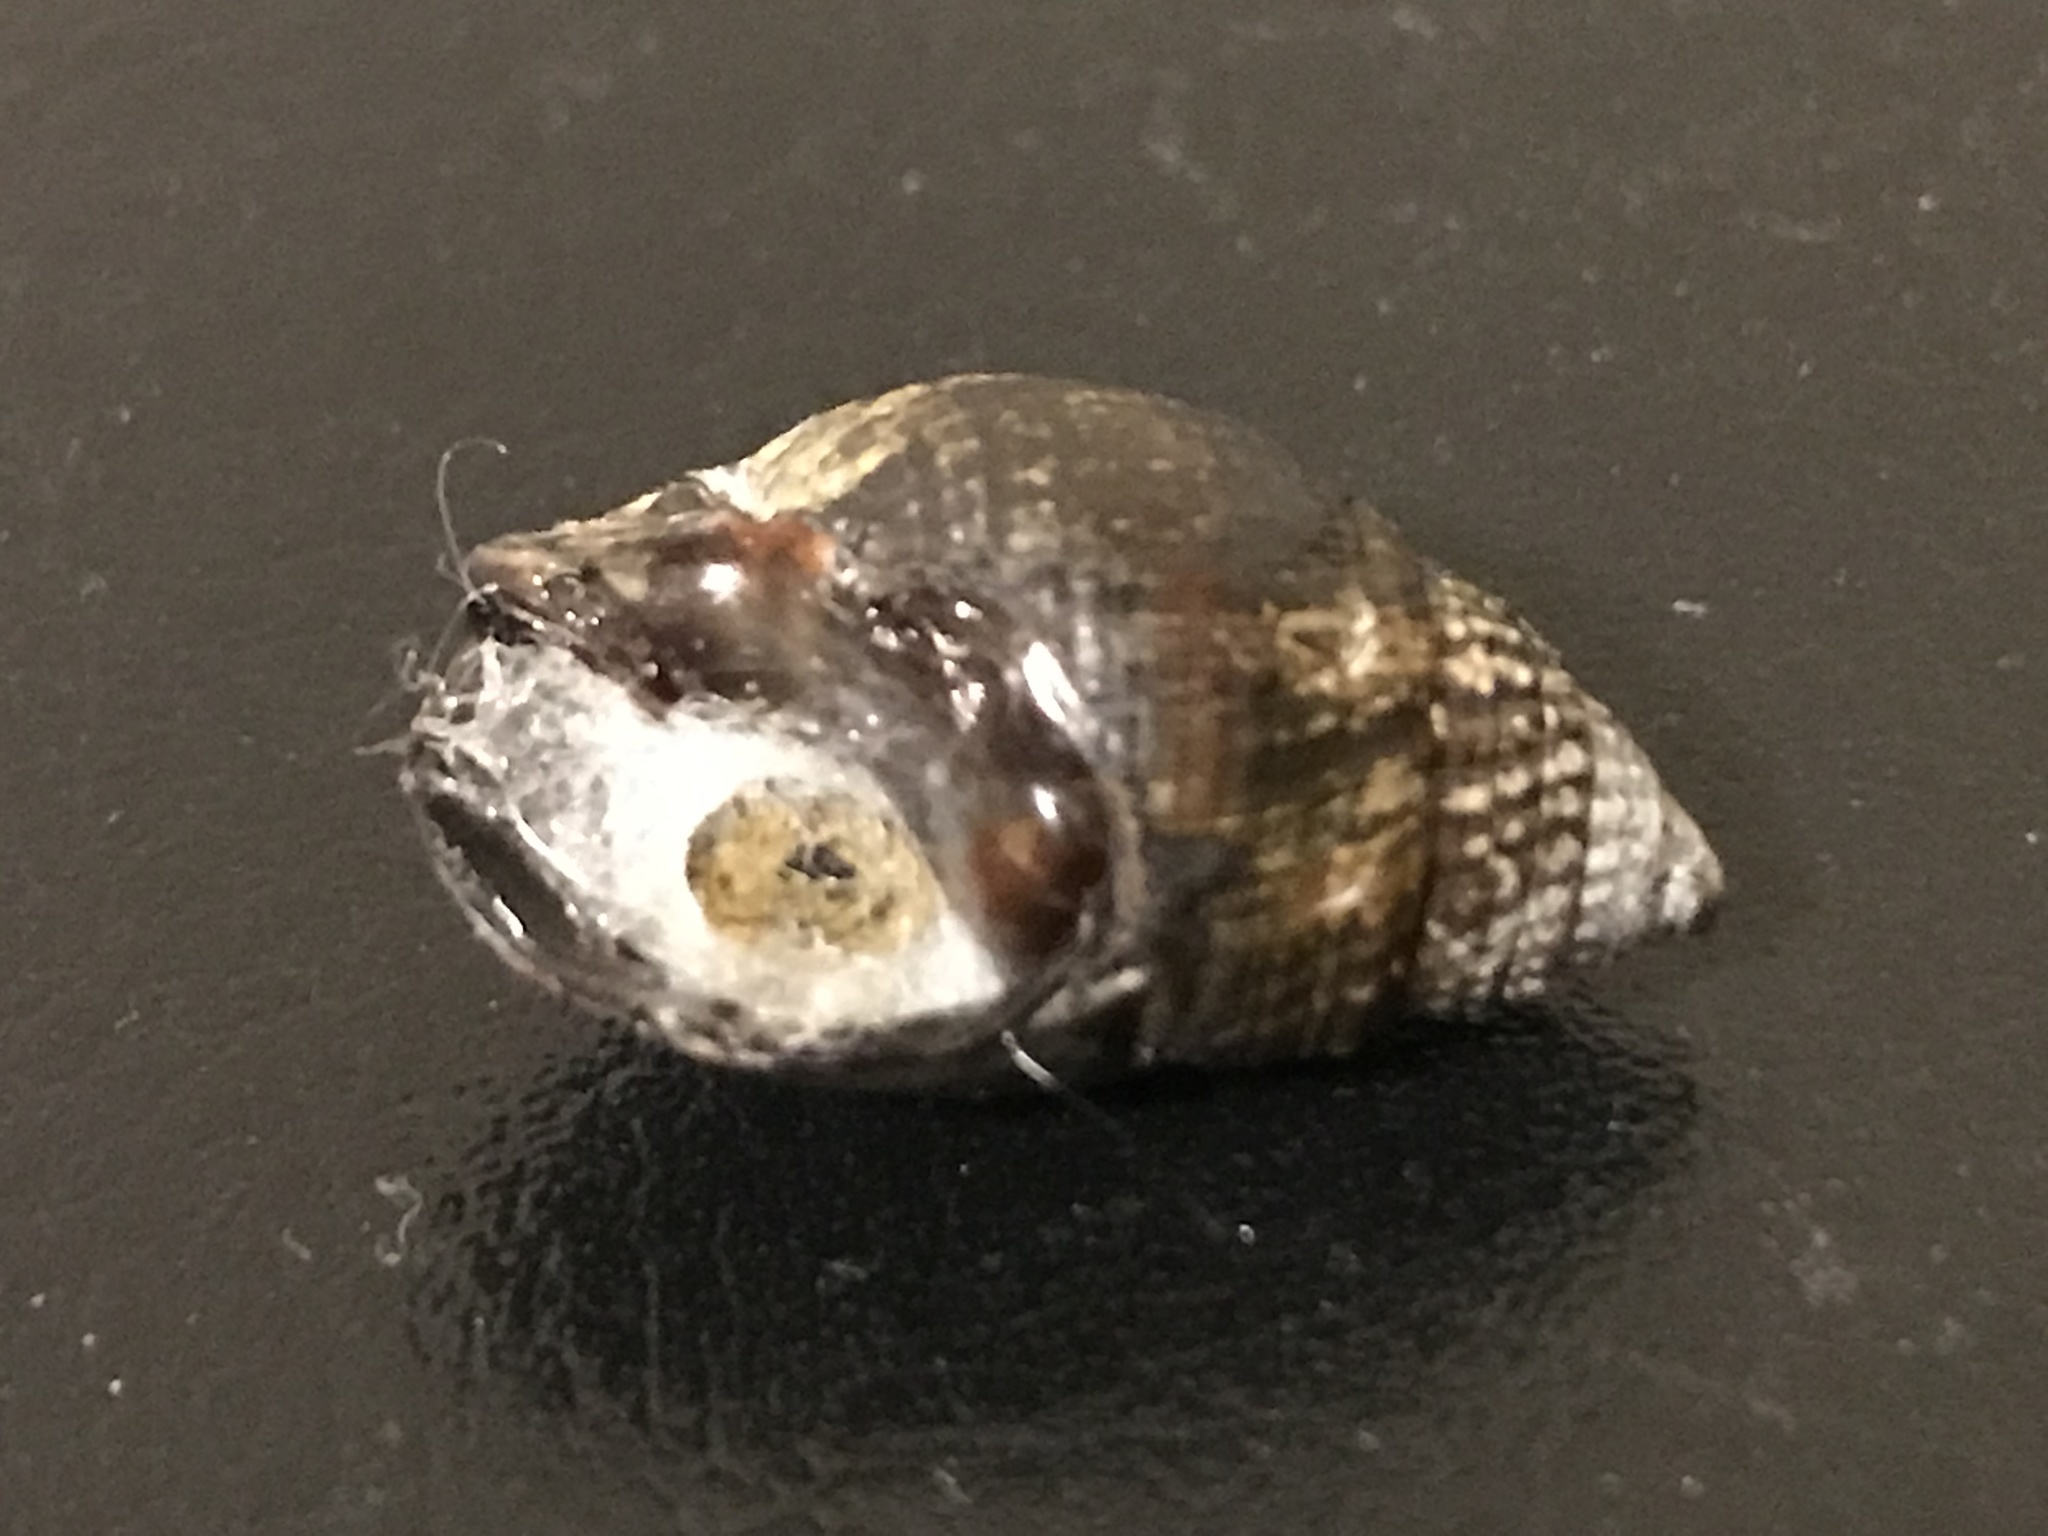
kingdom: Animalia
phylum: Mollusca
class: Gastropoda
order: Neogastropoda
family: Nassariidae
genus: Ilyanassa
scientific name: Ilyanassa obsoleta
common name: Eastern mudsnail
